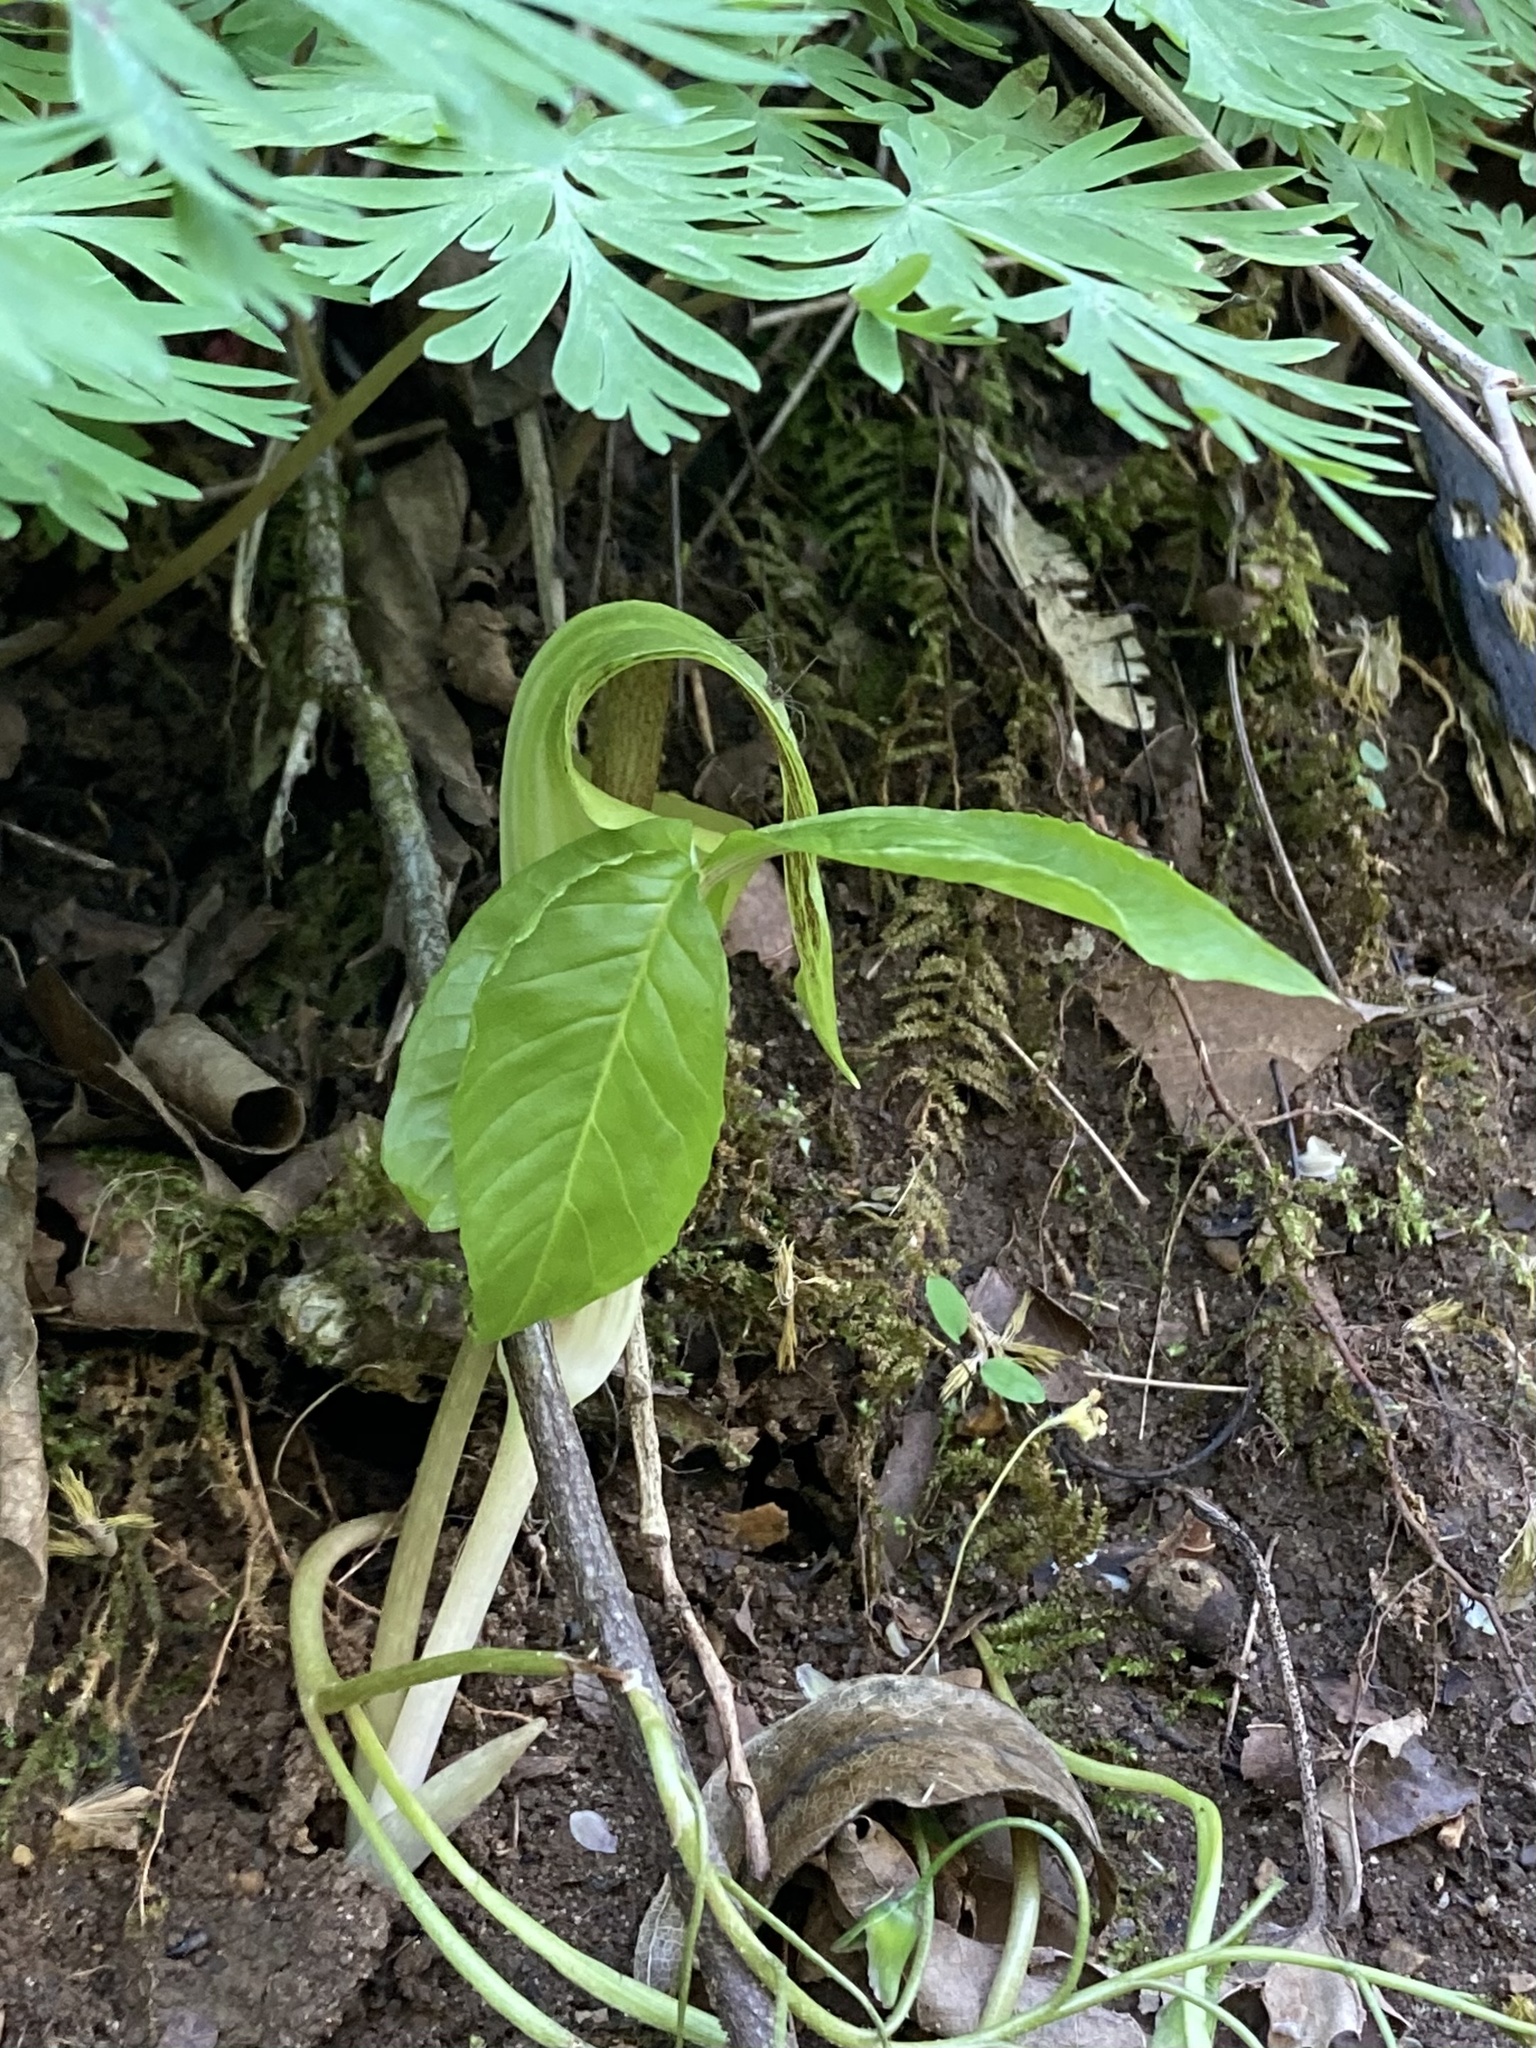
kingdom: Plantae
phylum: Tracheophyta
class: Liliopsida
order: Alismatales
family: Araceae
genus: Arisaema
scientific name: Arisaema triphyllum
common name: Jack-in-the-pulpit
